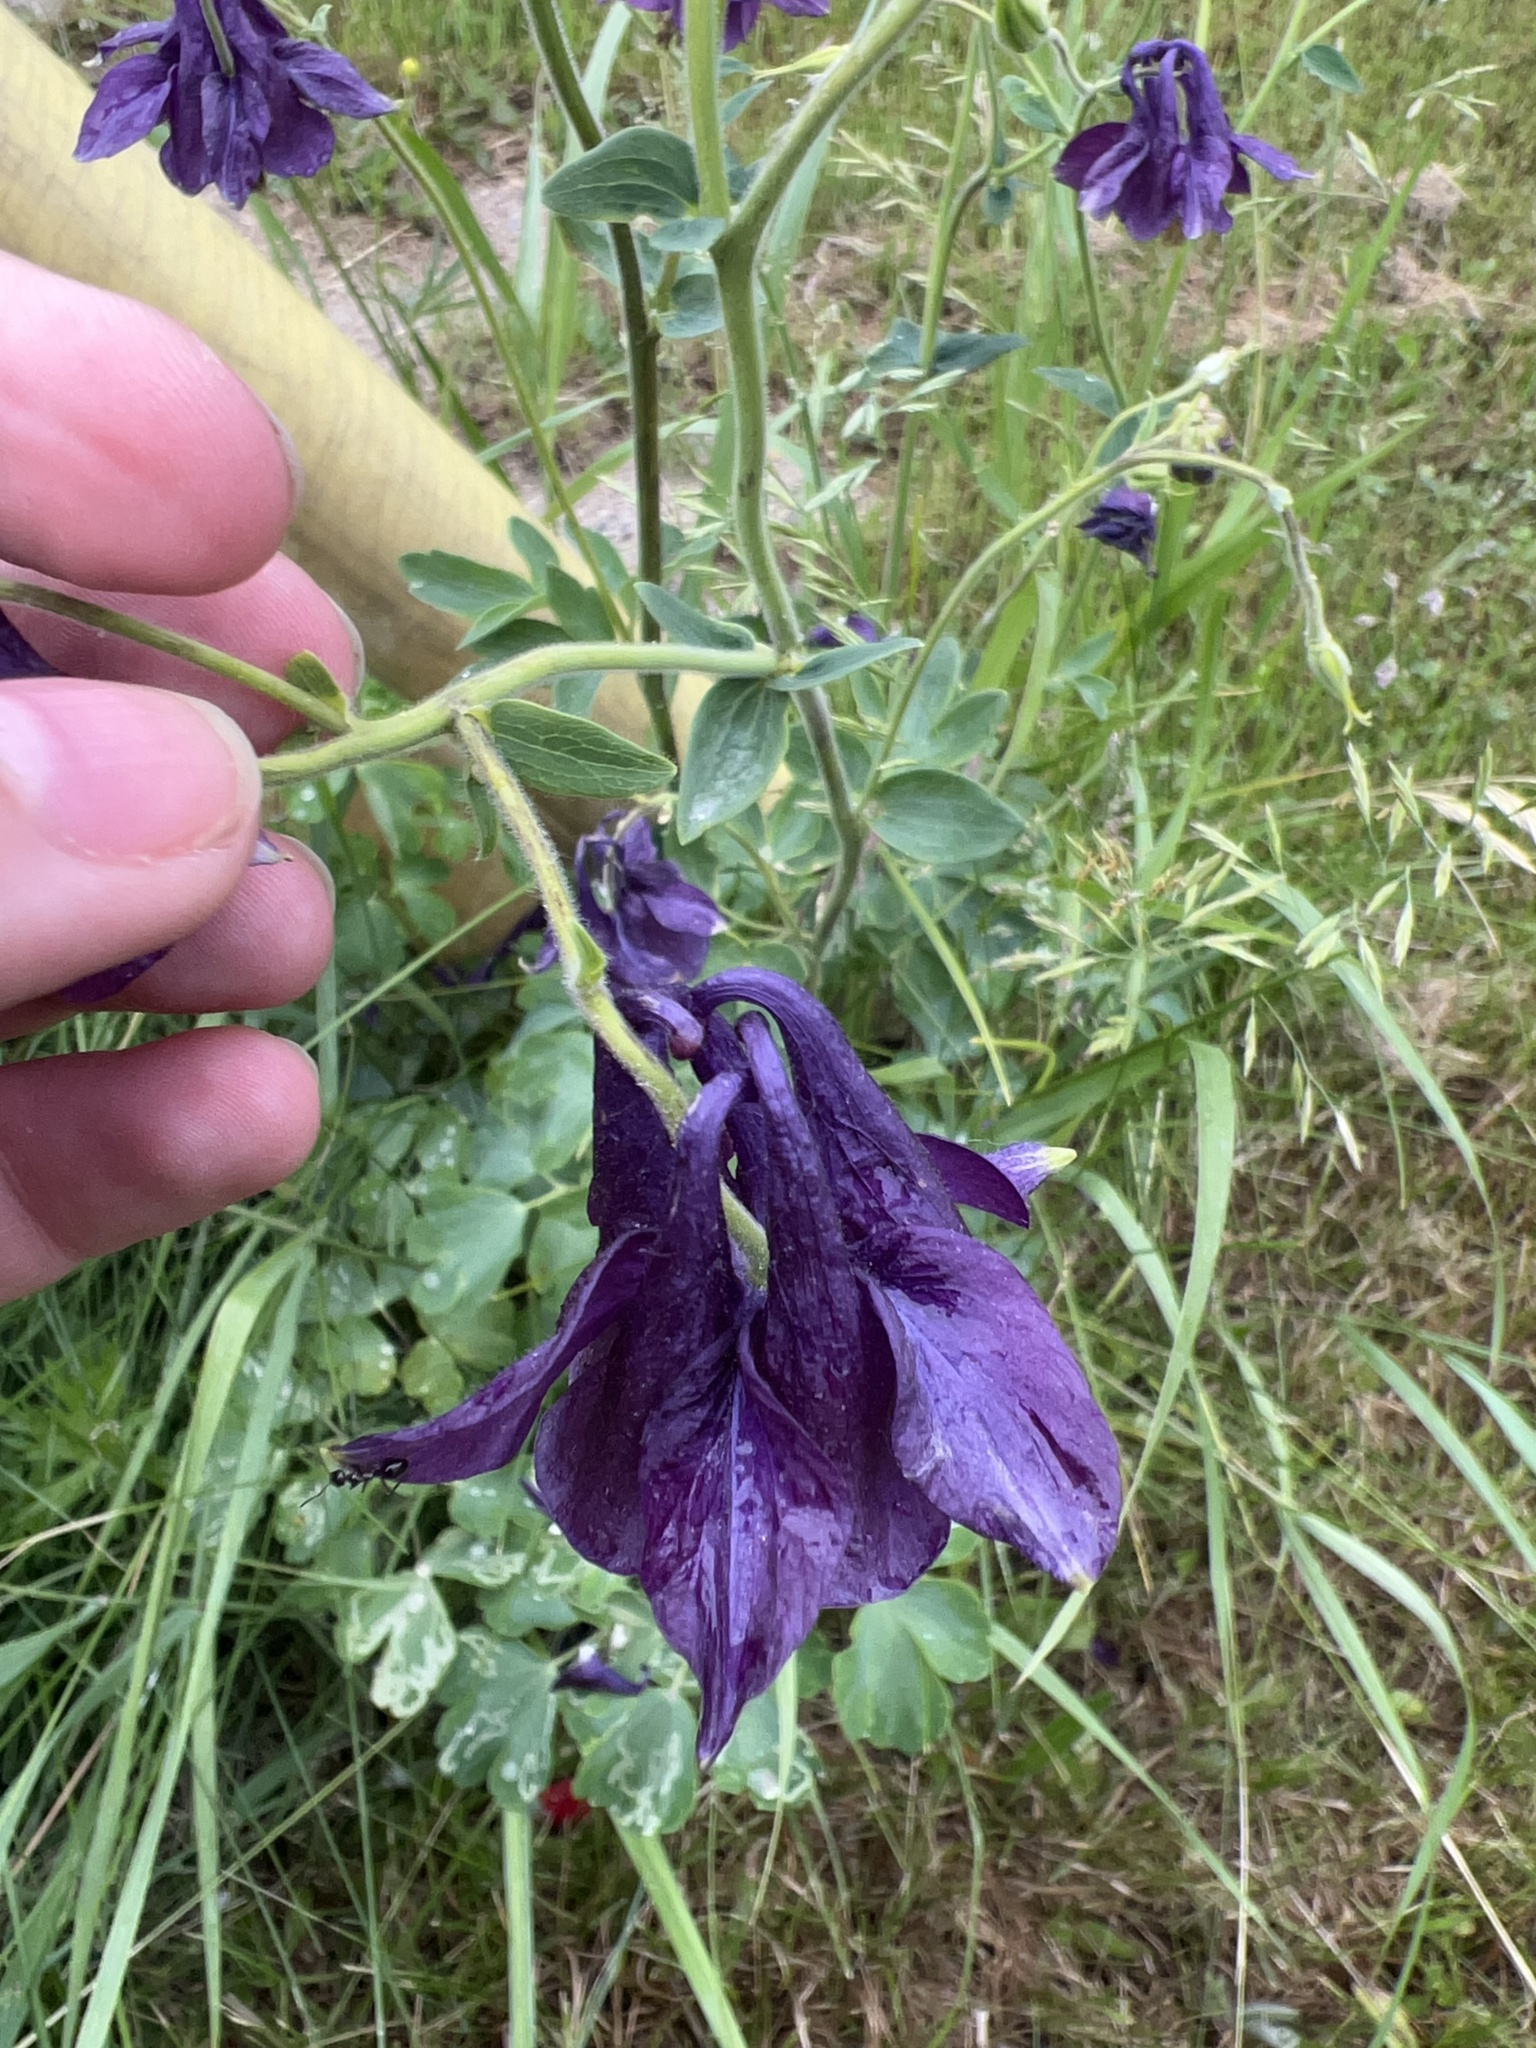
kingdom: Plantae
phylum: Tracheophyta
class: Magnoliopsida
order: Ranunculales
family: Ranunculaceae
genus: Aquilegia
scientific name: Aquilegia vulgaris
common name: Columbine
